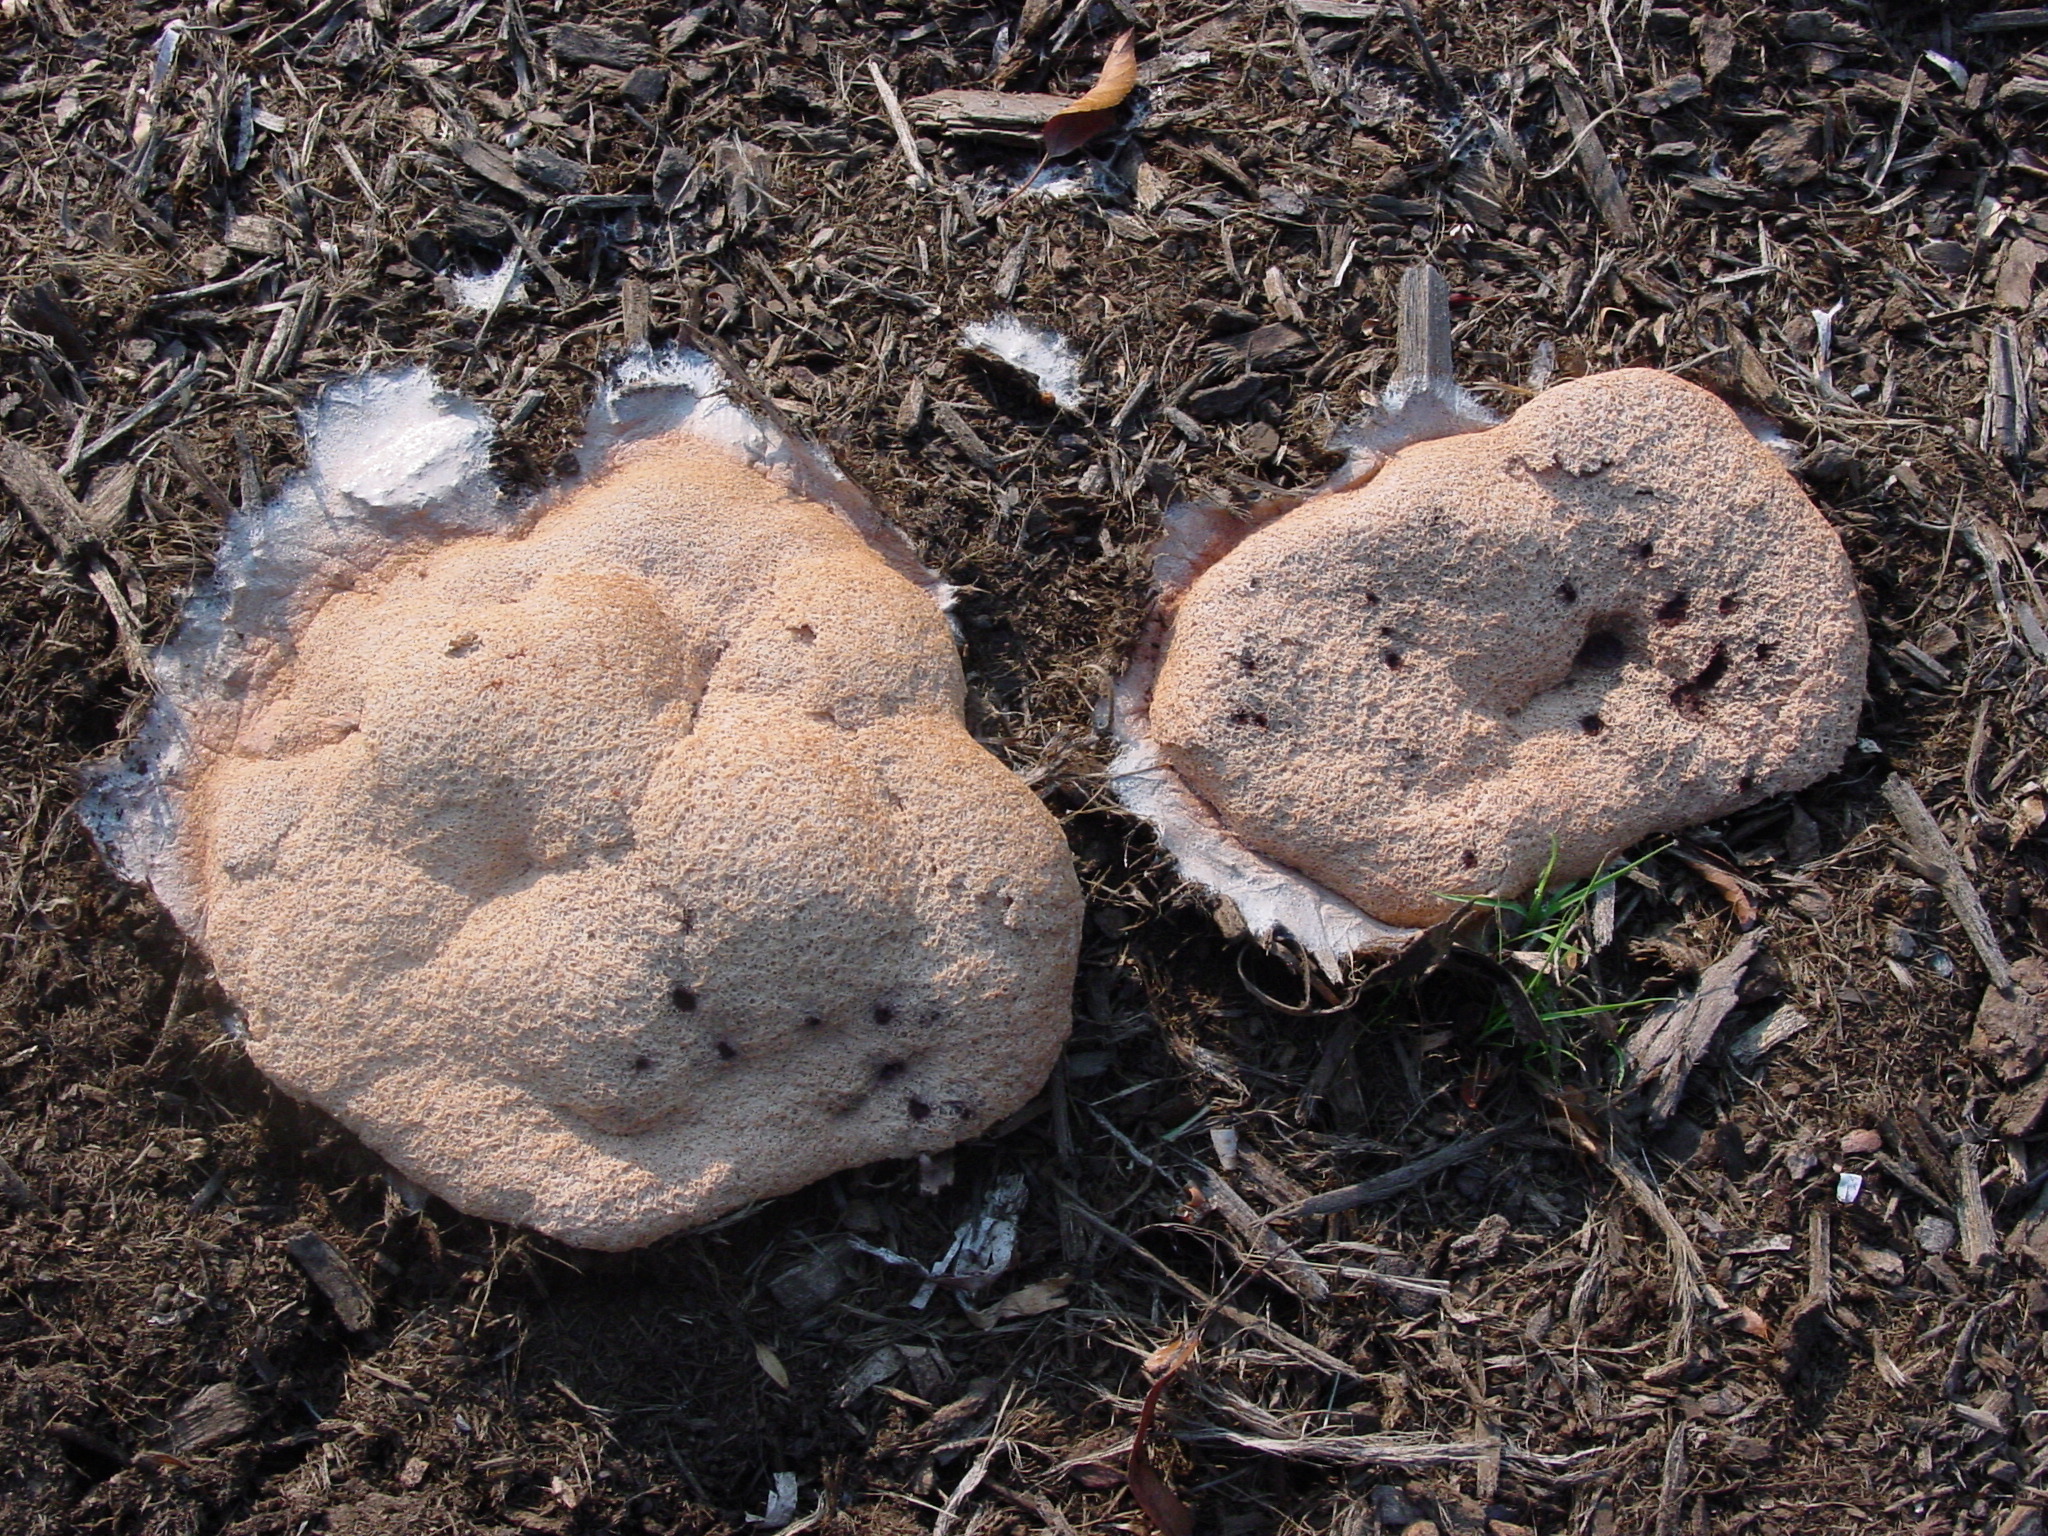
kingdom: Protozoa
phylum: Mycetozoa
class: Myxomycetes
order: Physarales
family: Physaraceae
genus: Fuligo
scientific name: Fuligo septica
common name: Dog vomit slime mold
